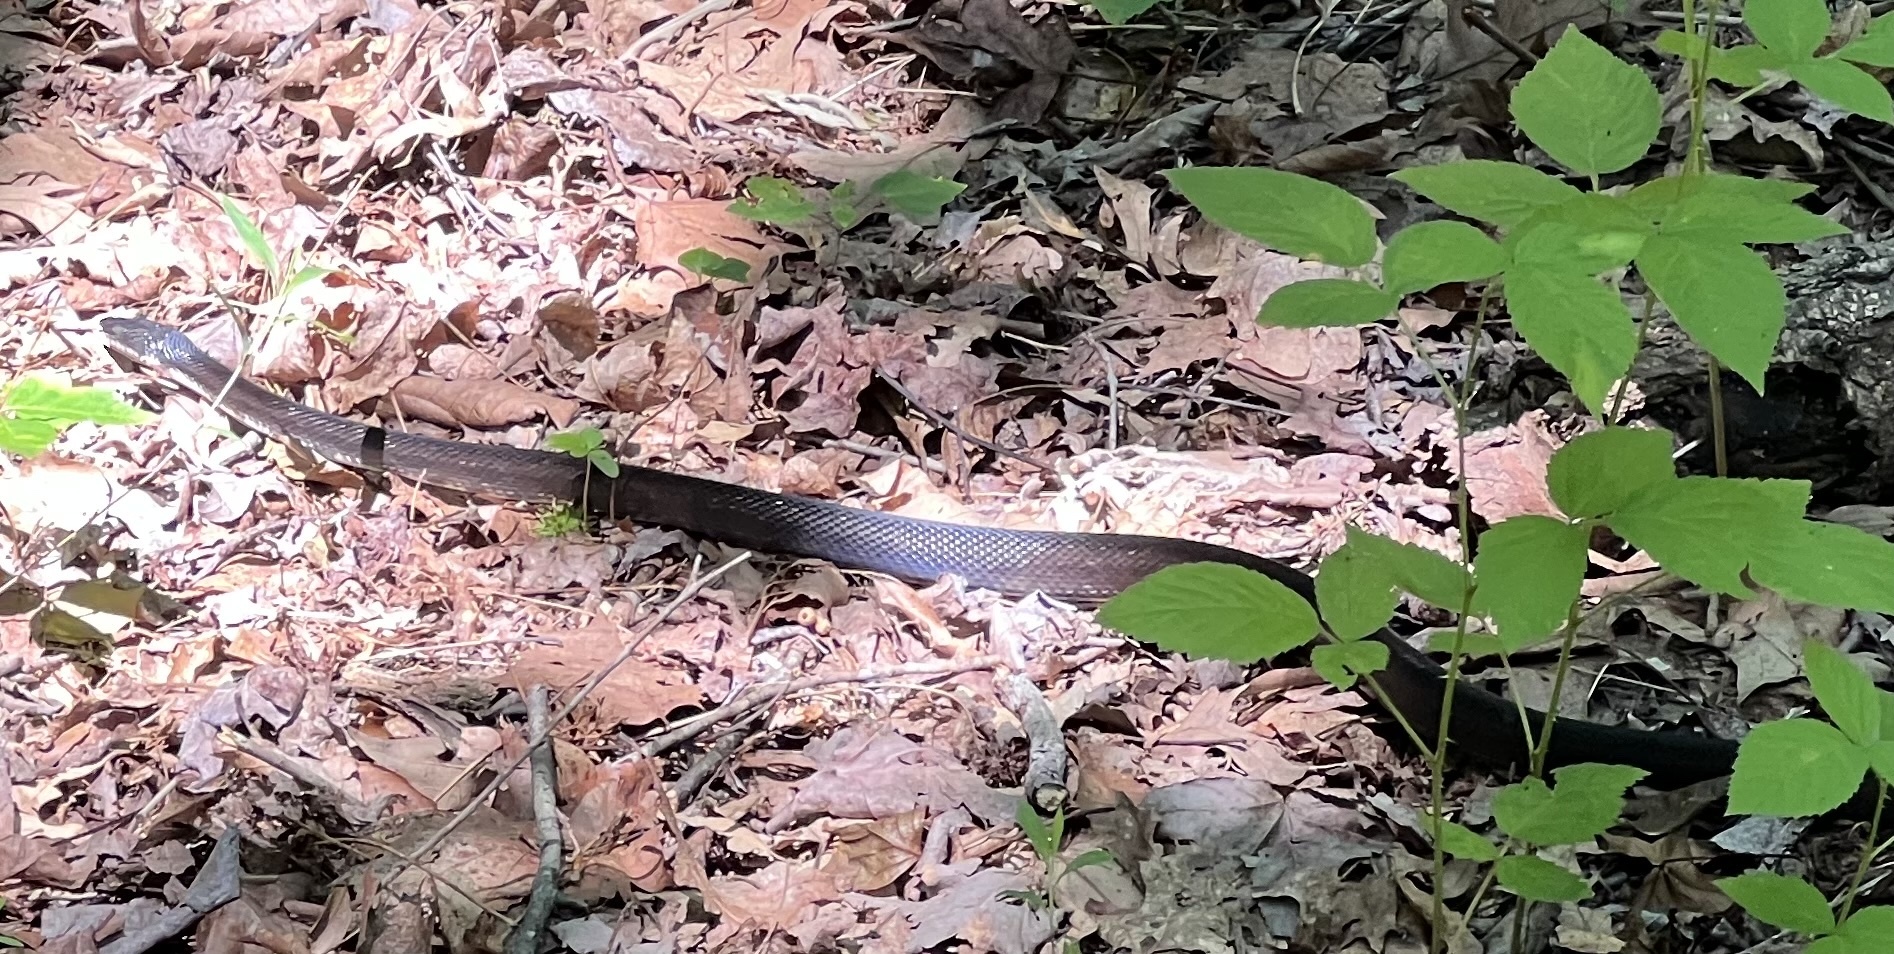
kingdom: Animalia
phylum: Chordata
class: Squamata
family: Colubridae
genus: Pantherophis
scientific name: Pantherophis alleghaniensis
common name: Eastern rat snake
